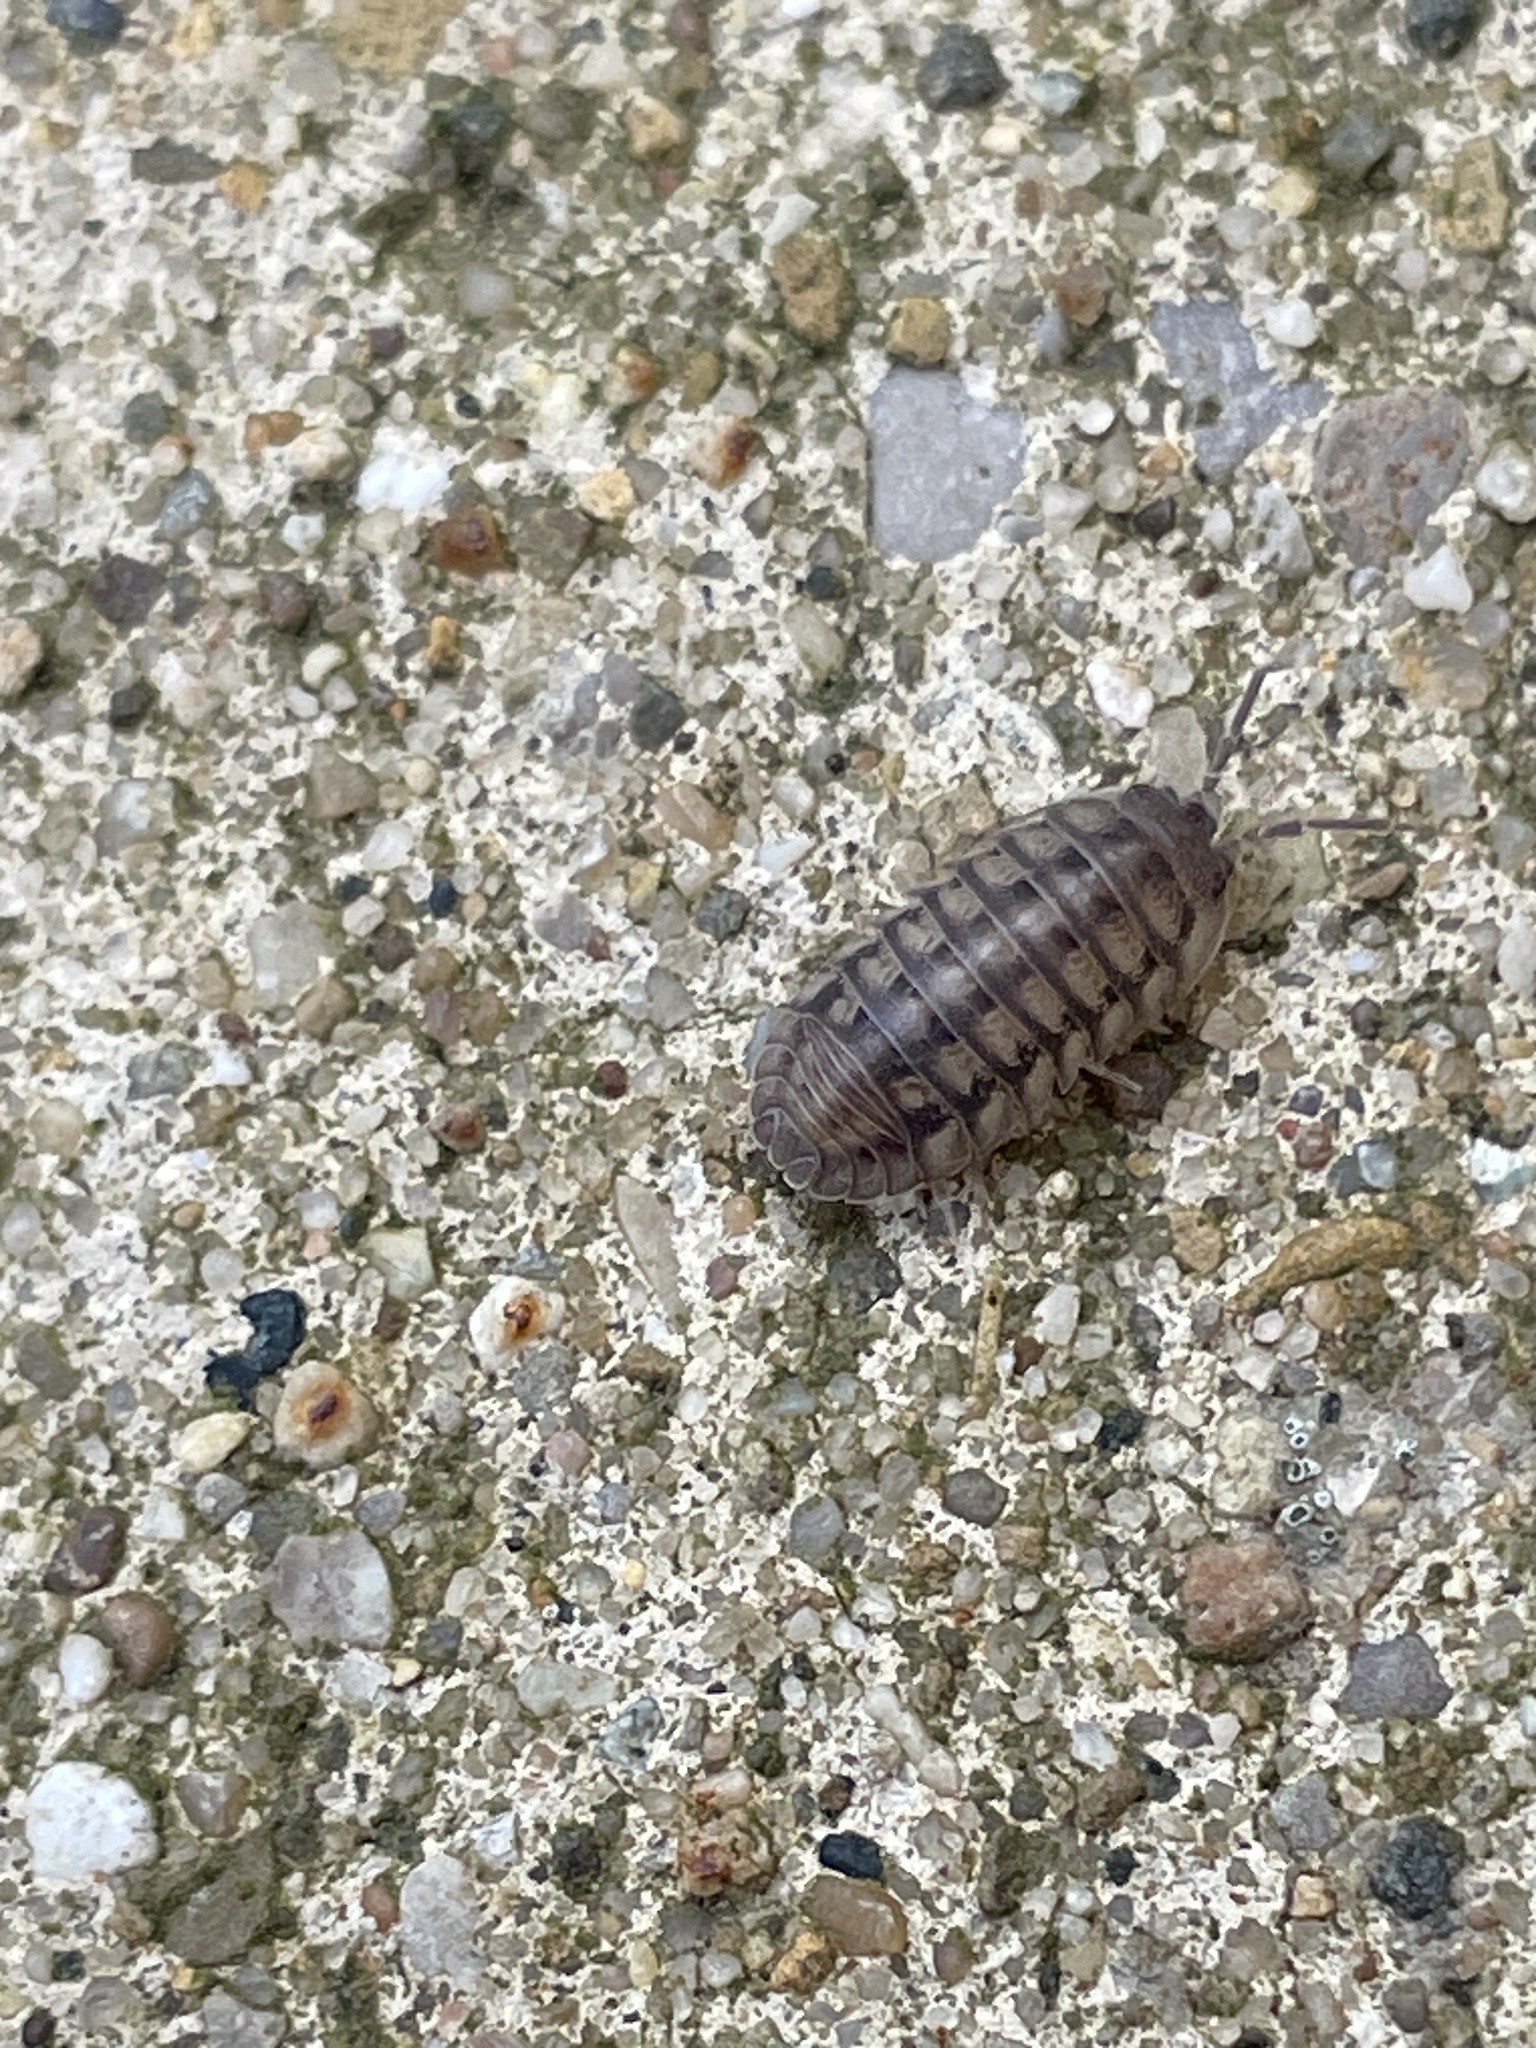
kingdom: Animalia
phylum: Arthropoda
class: Malacostraca
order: Isopoda
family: Armadillidiidae
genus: Armadillidium
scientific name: Armadillidium nasatum
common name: Isopod
